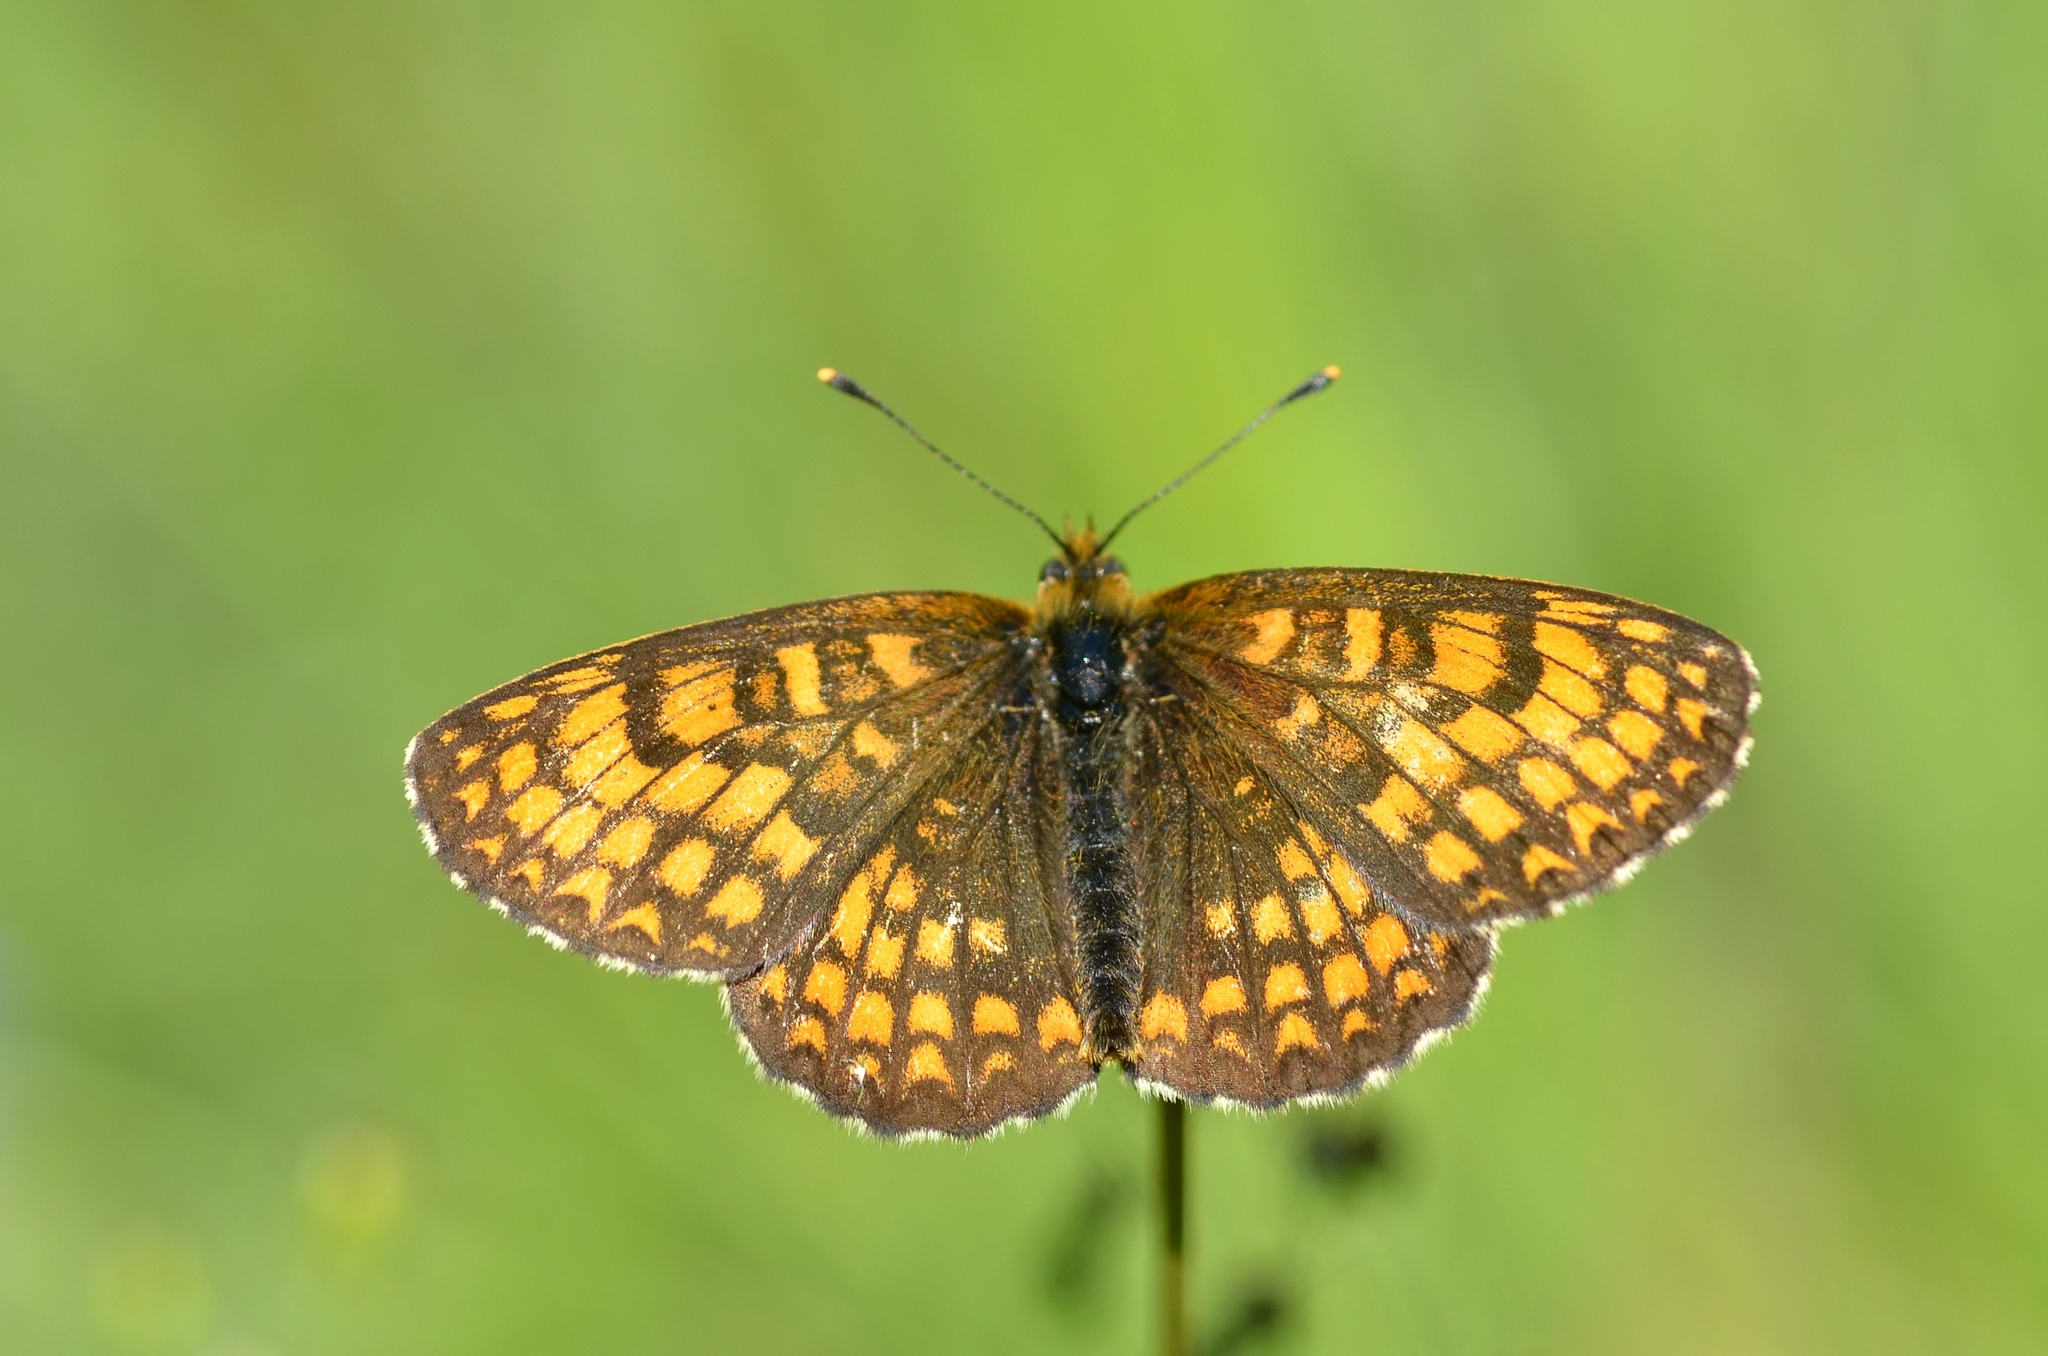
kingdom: Animalia
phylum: Arthropoda
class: Insecta
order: Lepidoptera
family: Nymphalidae
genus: Melitaea
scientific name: Melitaea athalia
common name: Heath fritillary
